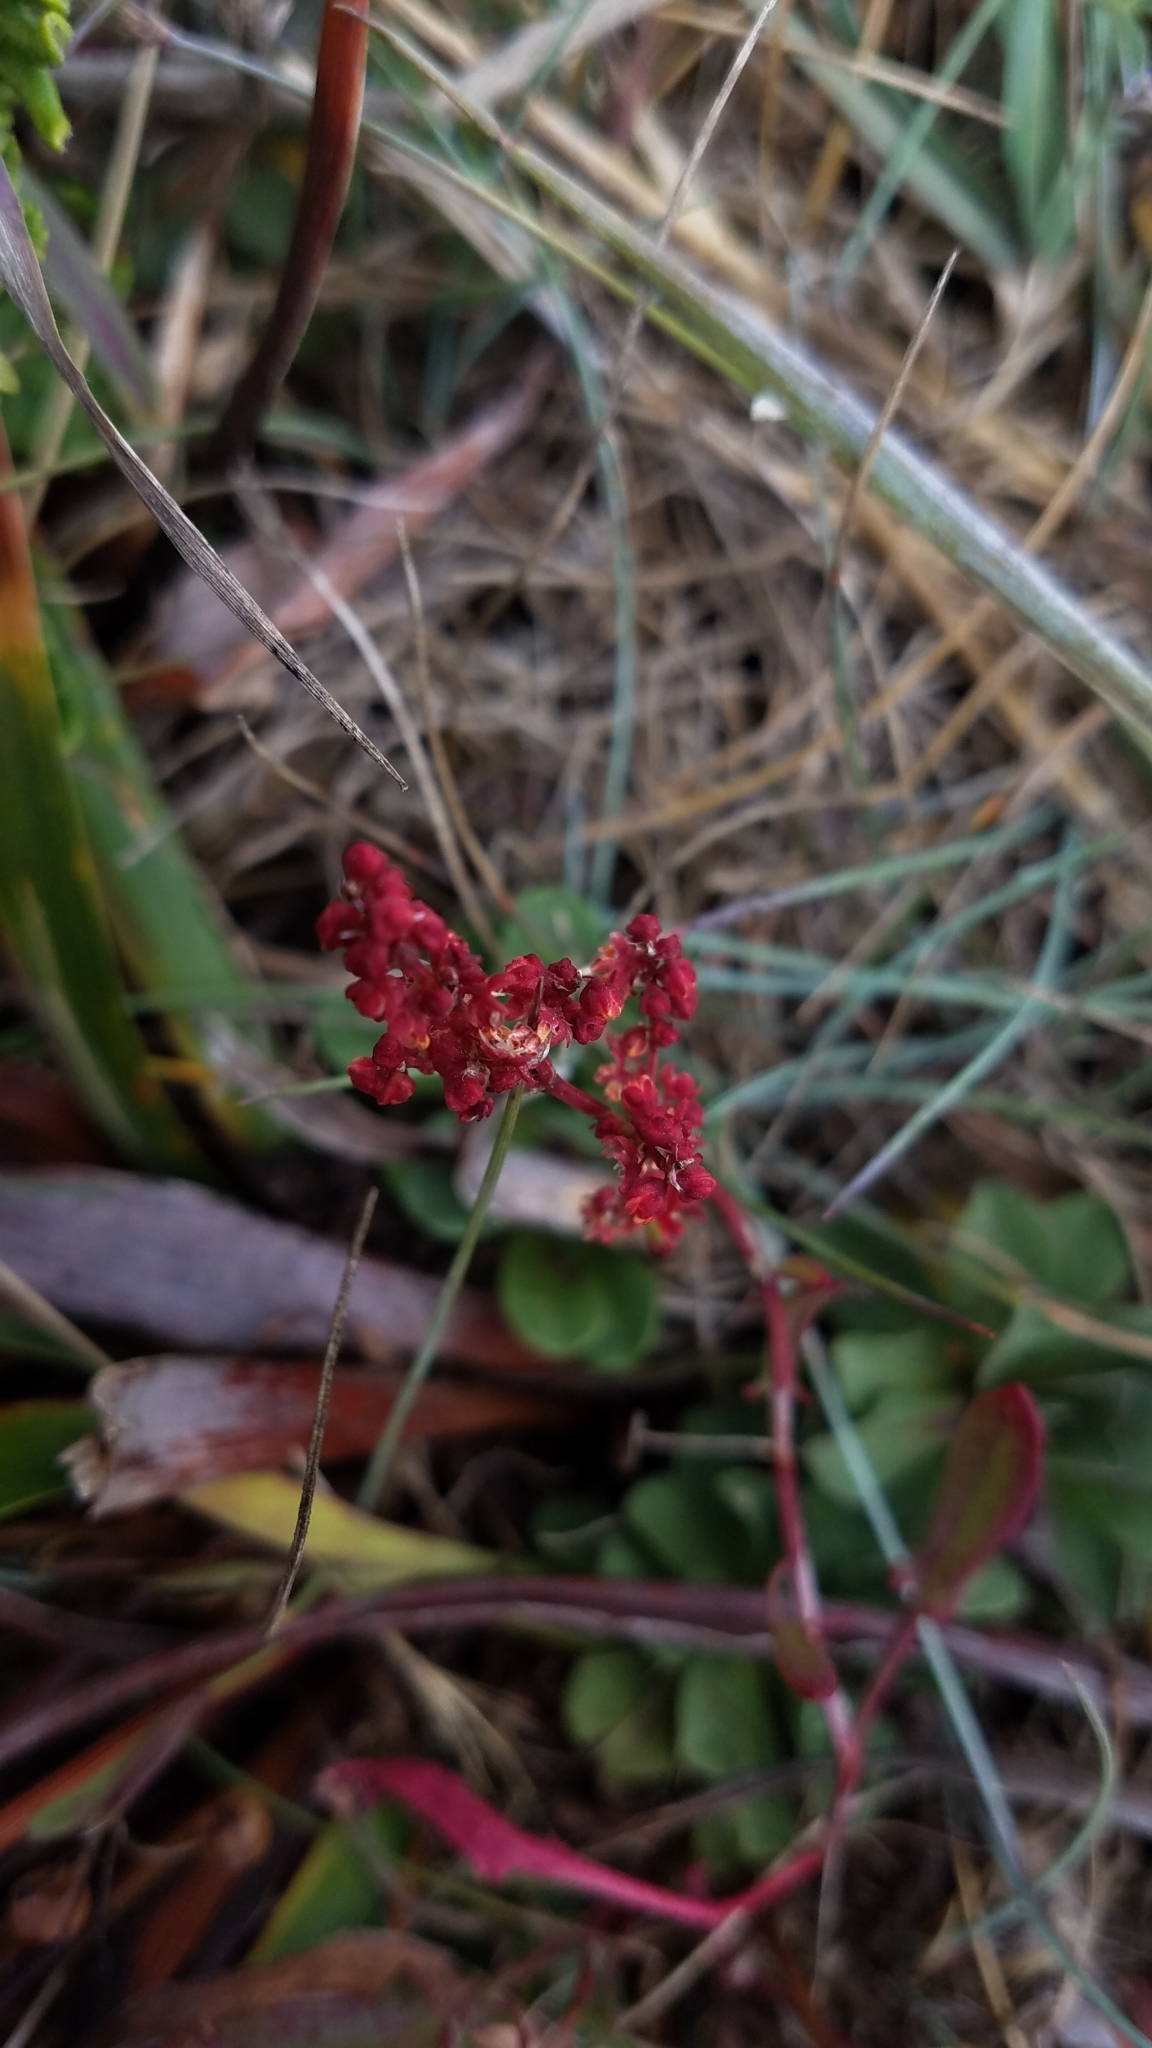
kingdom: Plantae
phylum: Tracheophyta
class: Magnoliopsida
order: Caryophyllales
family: Polygonaceae
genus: Rumex
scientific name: Rumex acetosella
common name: Common sheep sorrel
